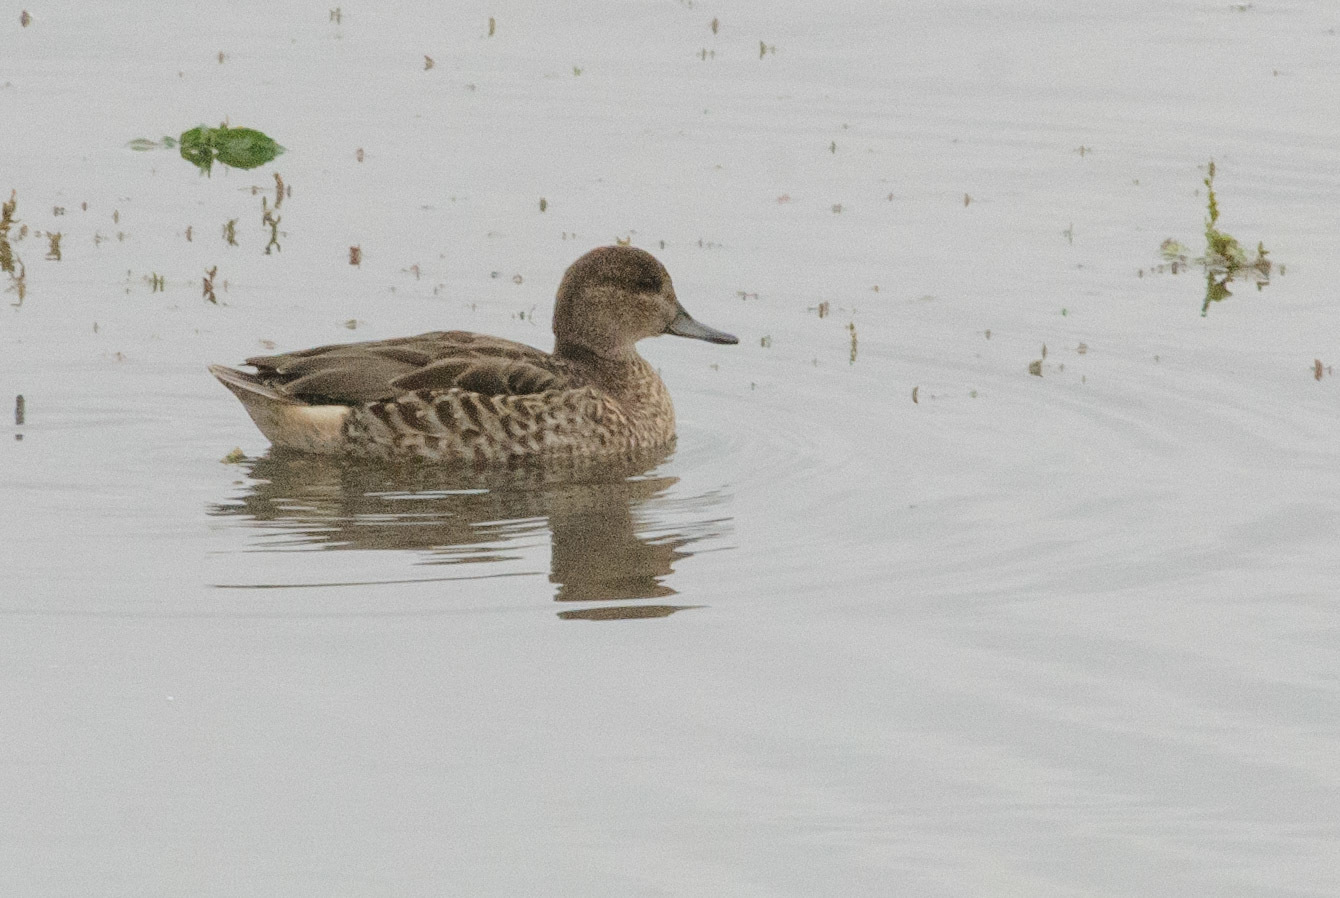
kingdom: Animalia
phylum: Chordata
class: Aves
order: Anseriformes
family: Anatidae
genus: Anas
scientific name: Anas crecca
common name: Eurasian teal
